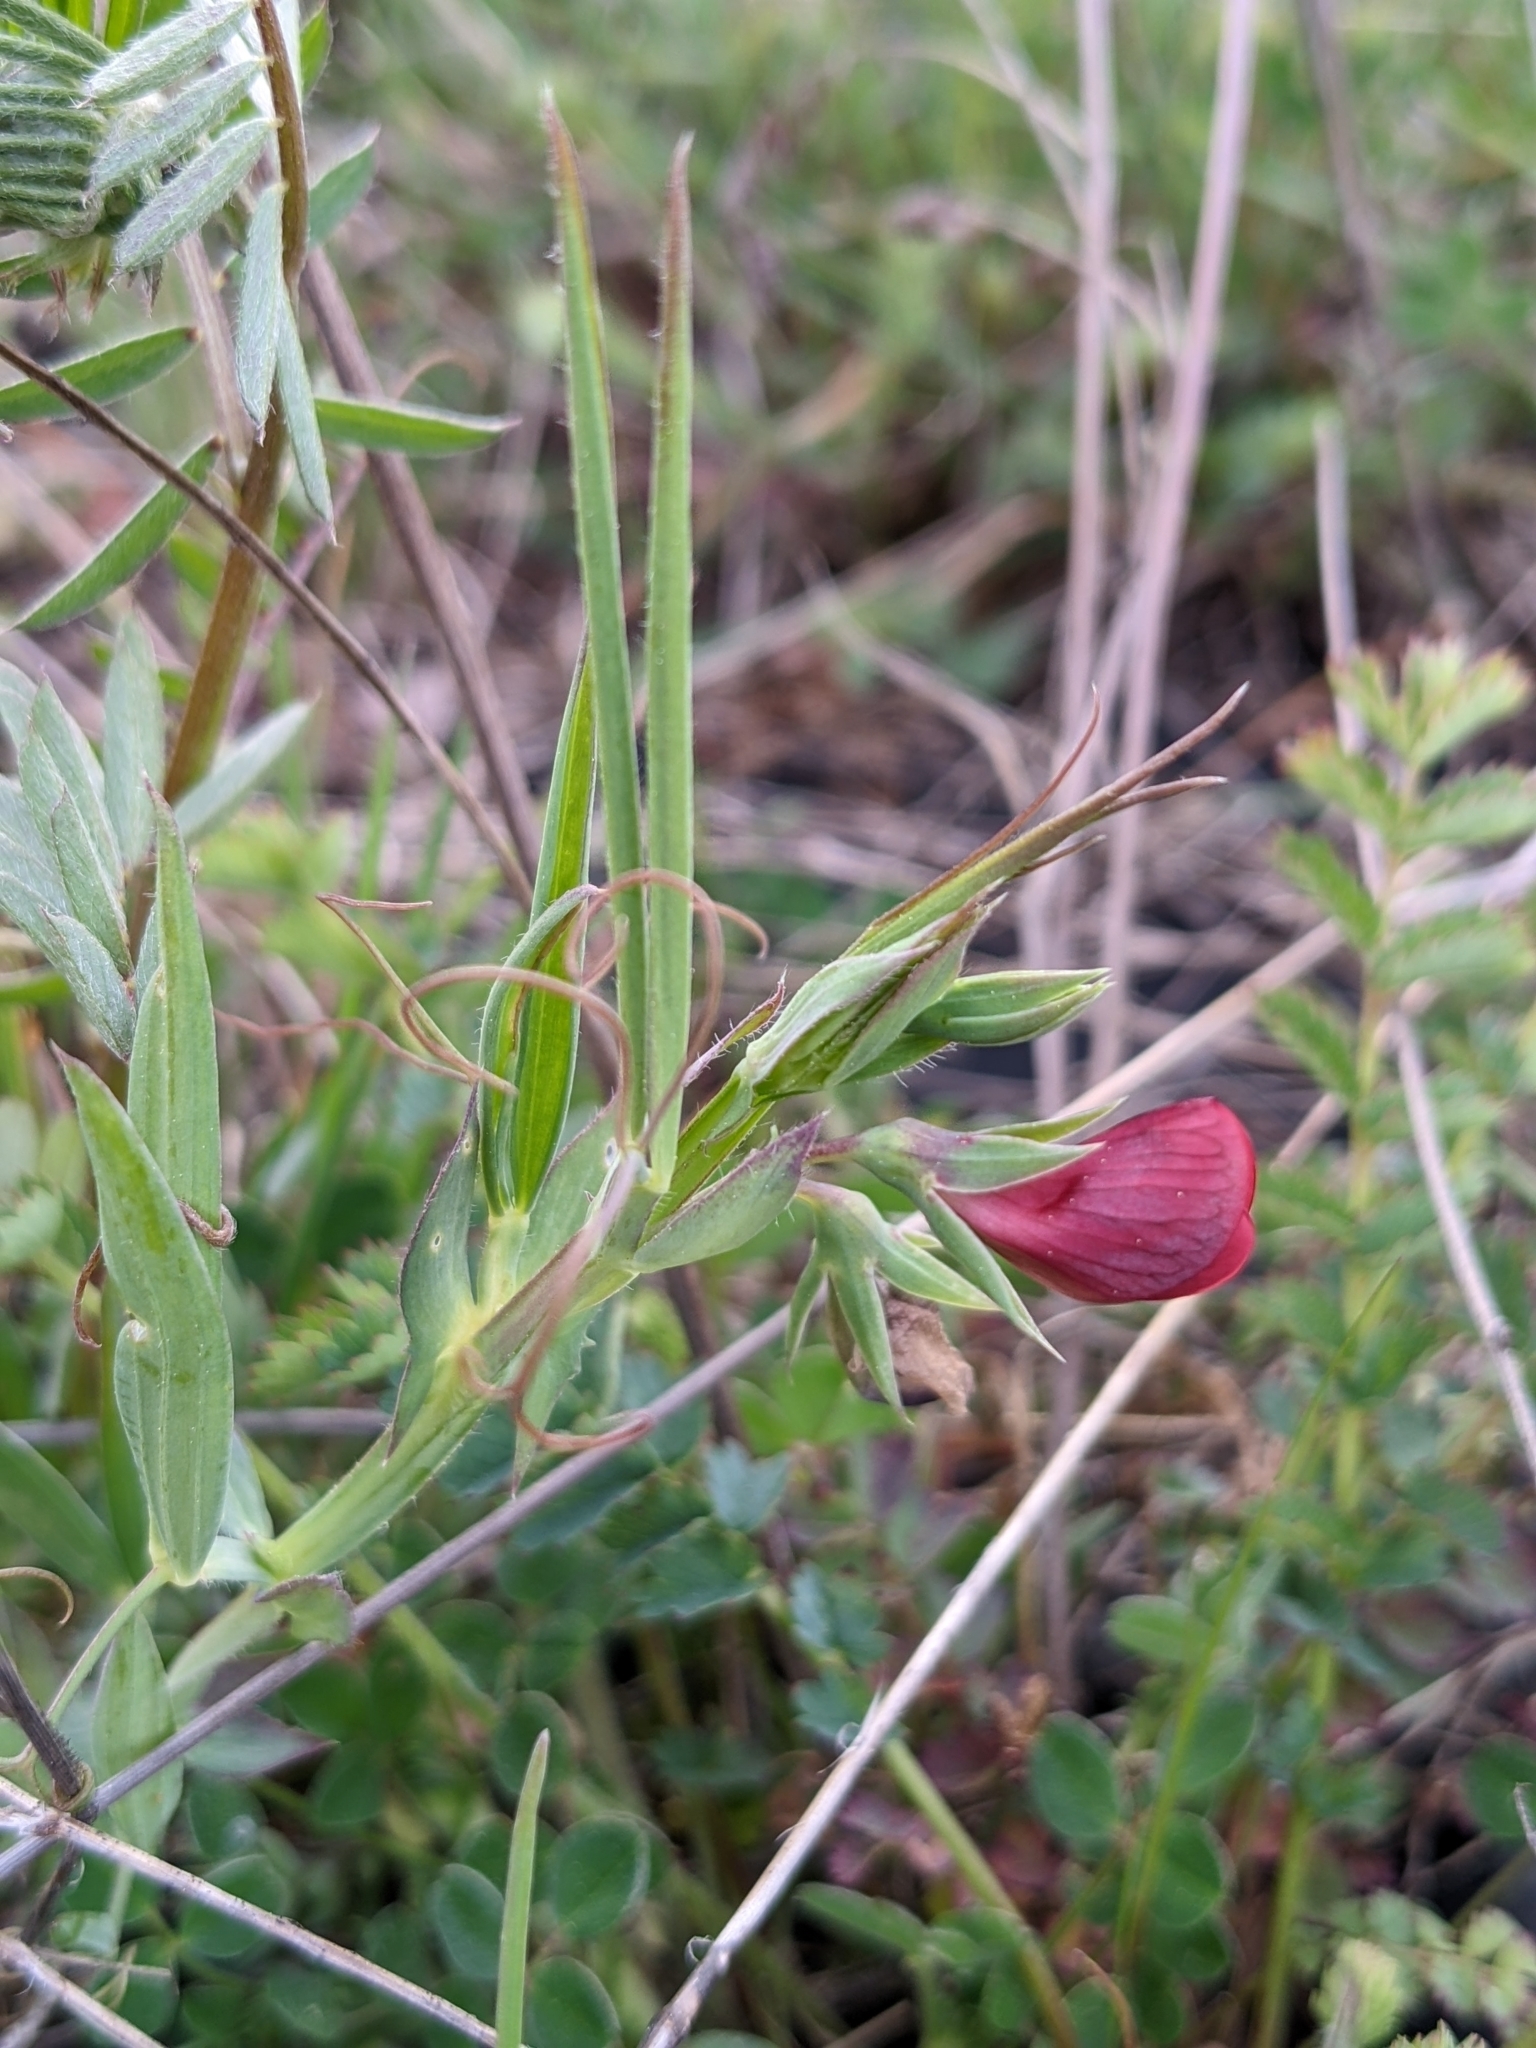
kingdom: Plantae
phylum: Tracheophyta
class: Magnoliopsida
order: Fabales
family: Fabaceae
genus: Lathyrus
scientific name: Lathyrus cicera
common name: Red vetchling
